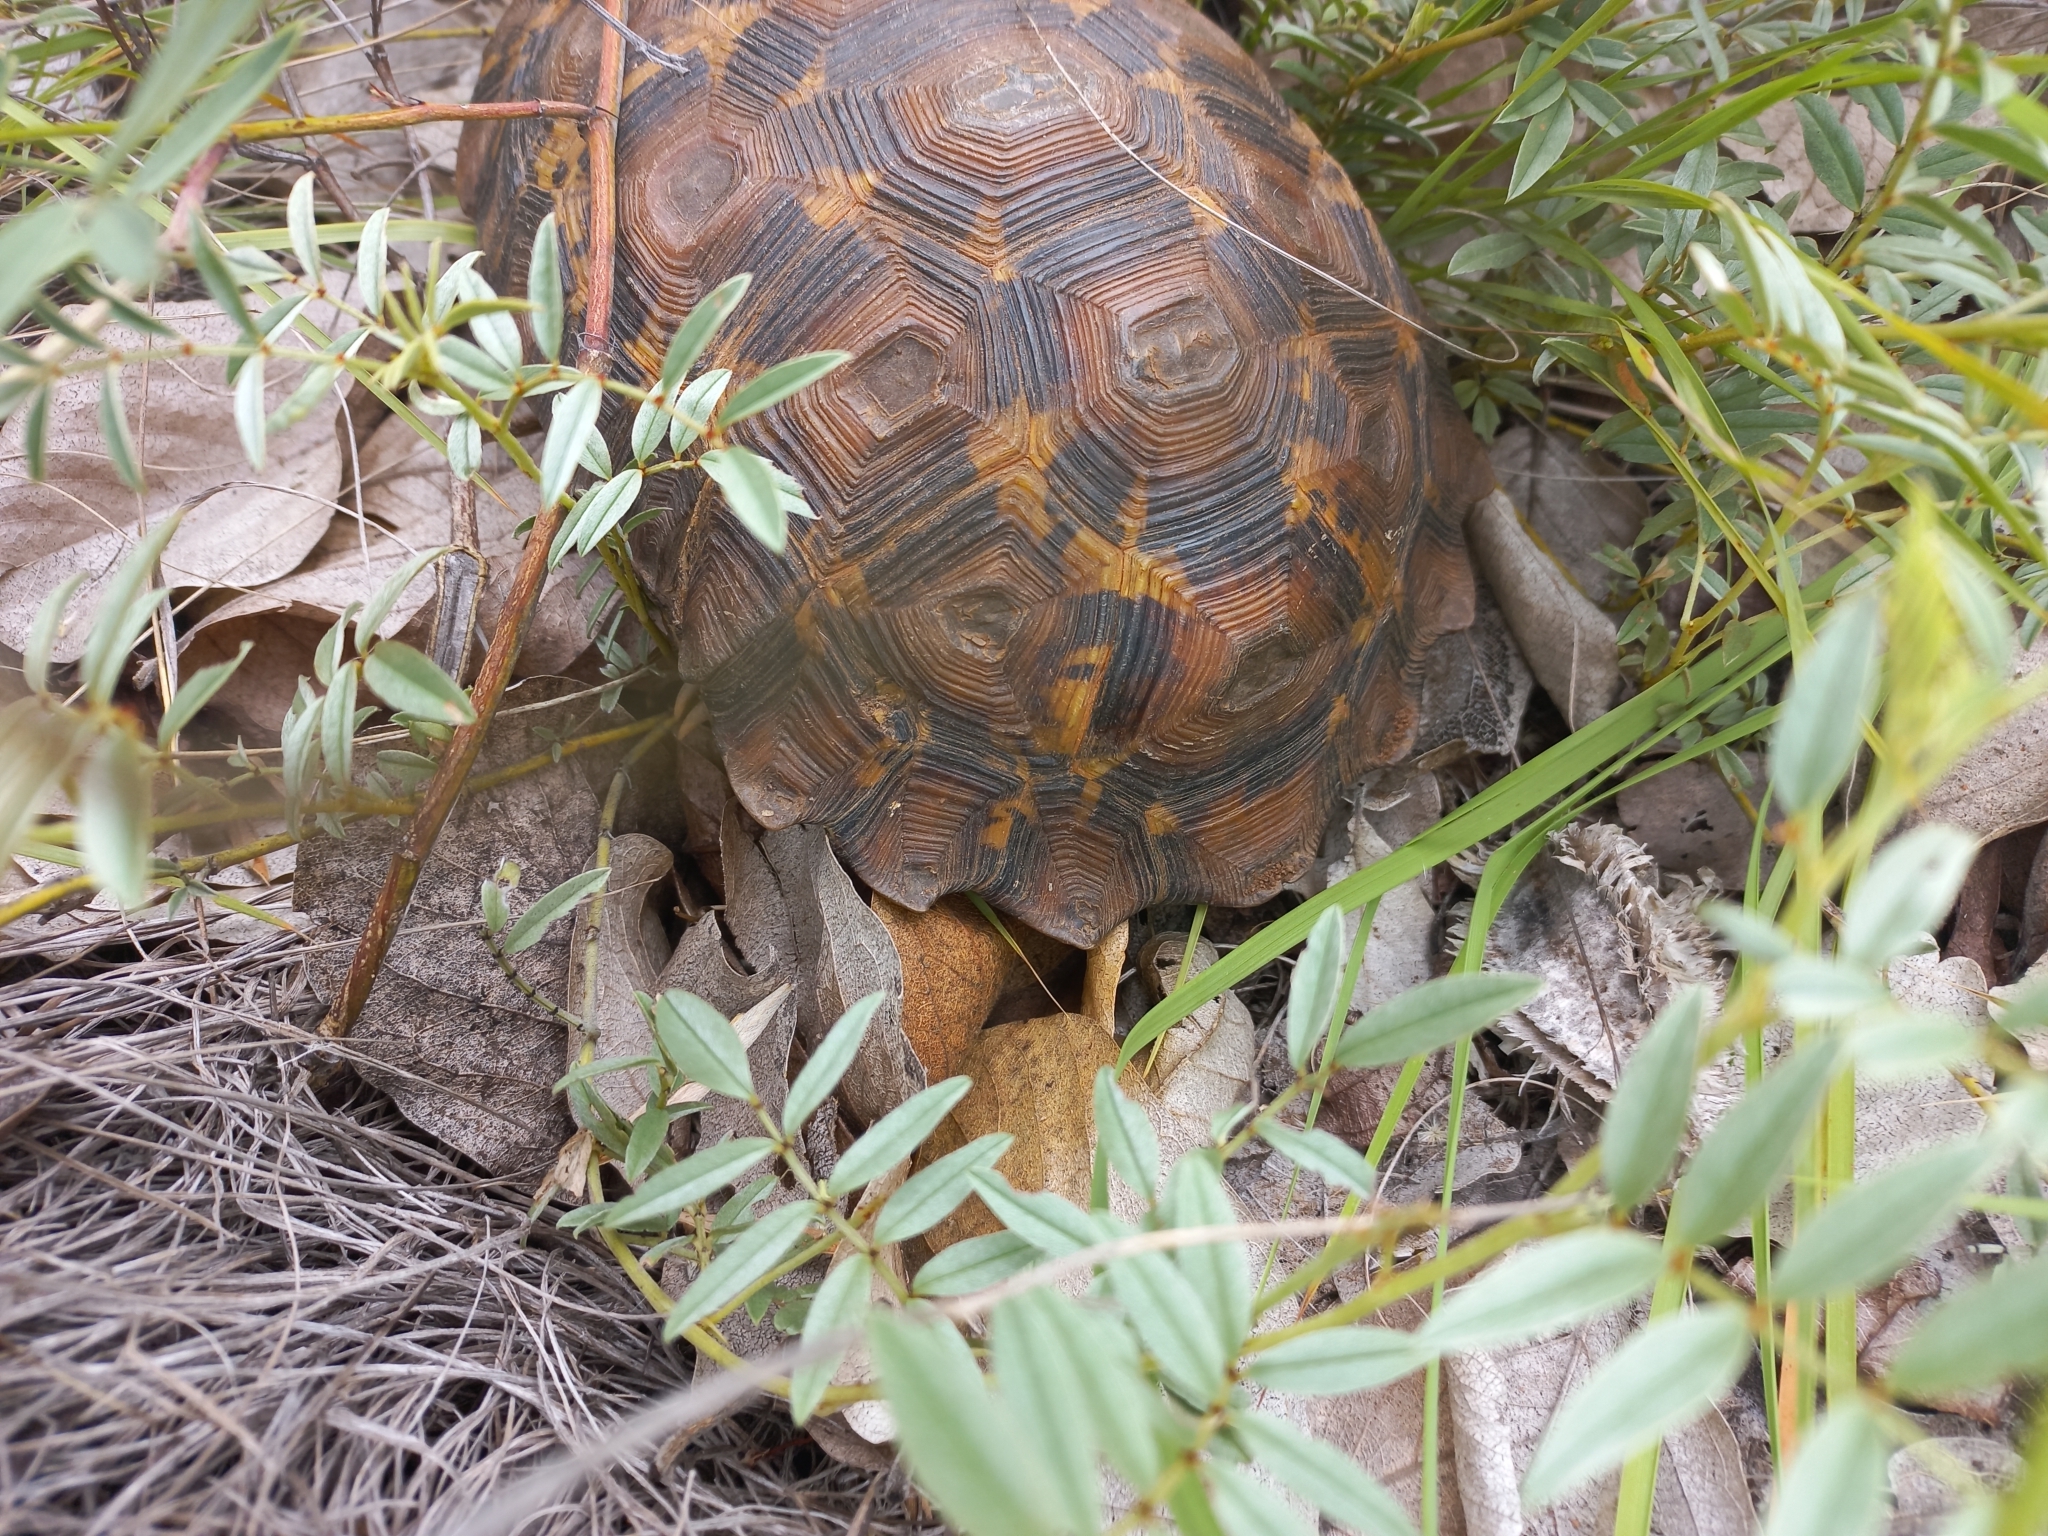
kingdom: Animalia
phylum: Chordata
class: Testudines
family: Testudinidae
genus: Kinixys
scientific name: Kinixys lobatsiana
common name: Lobatse hinge-back tortoise
